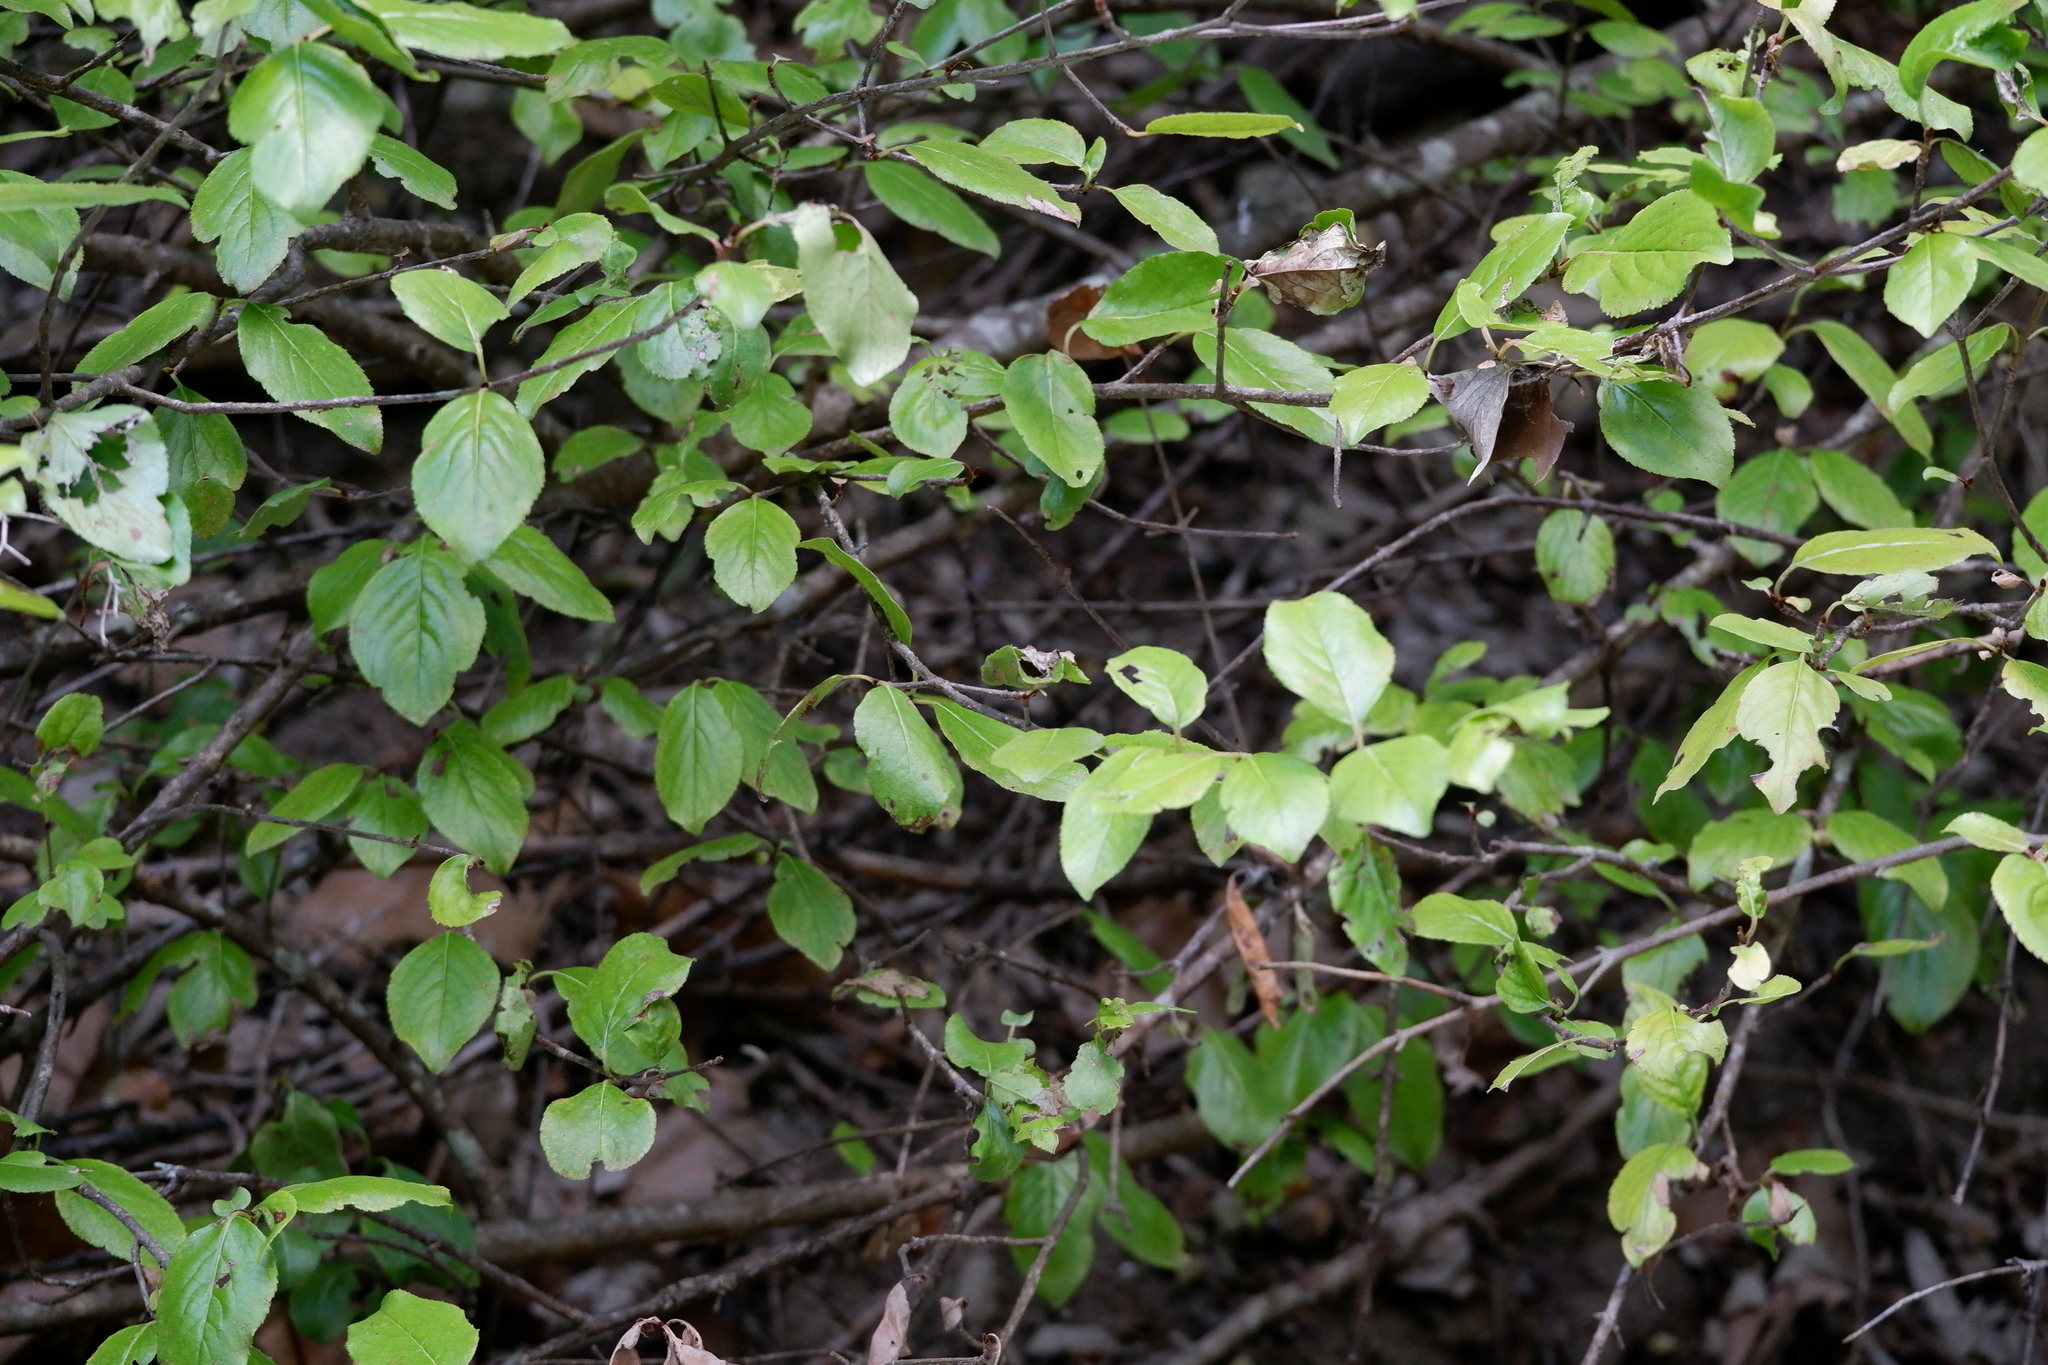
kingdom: Plantae
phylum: Tracheophyta
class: Magnoliopsida
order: Dipsacales
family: Viburnaceae
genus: Viburnum
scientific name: Viburnum rufidulum
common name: Blue haw
